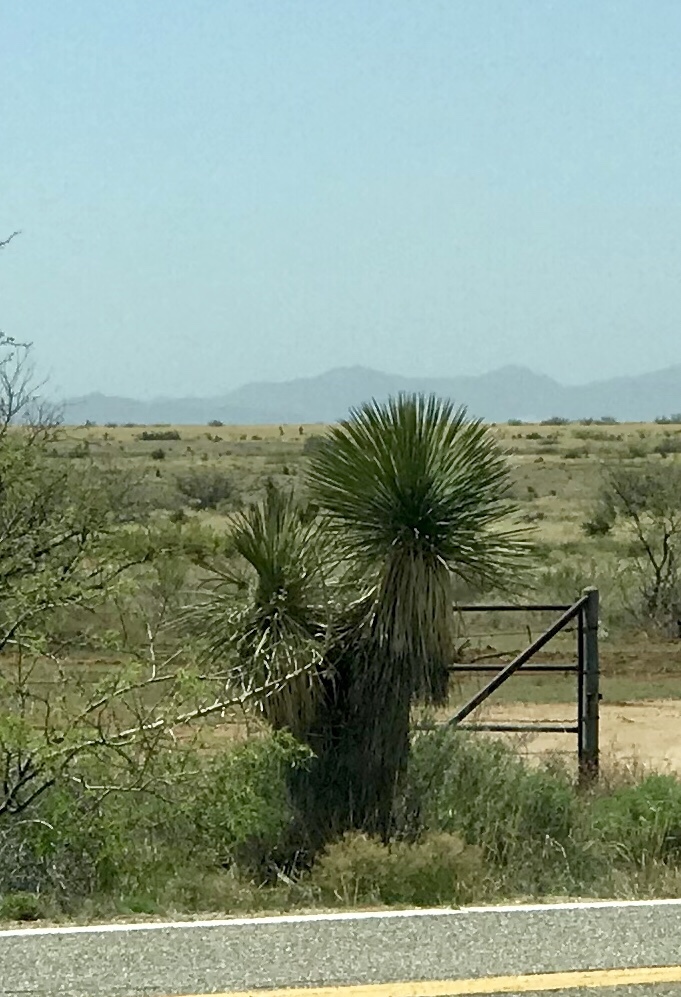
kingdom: Plantae
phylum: Tracheophyta
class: Liliopsida
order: Asparagales
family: Asparagaceae
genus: Yucca
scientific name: Yucca elata
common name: Palmella
